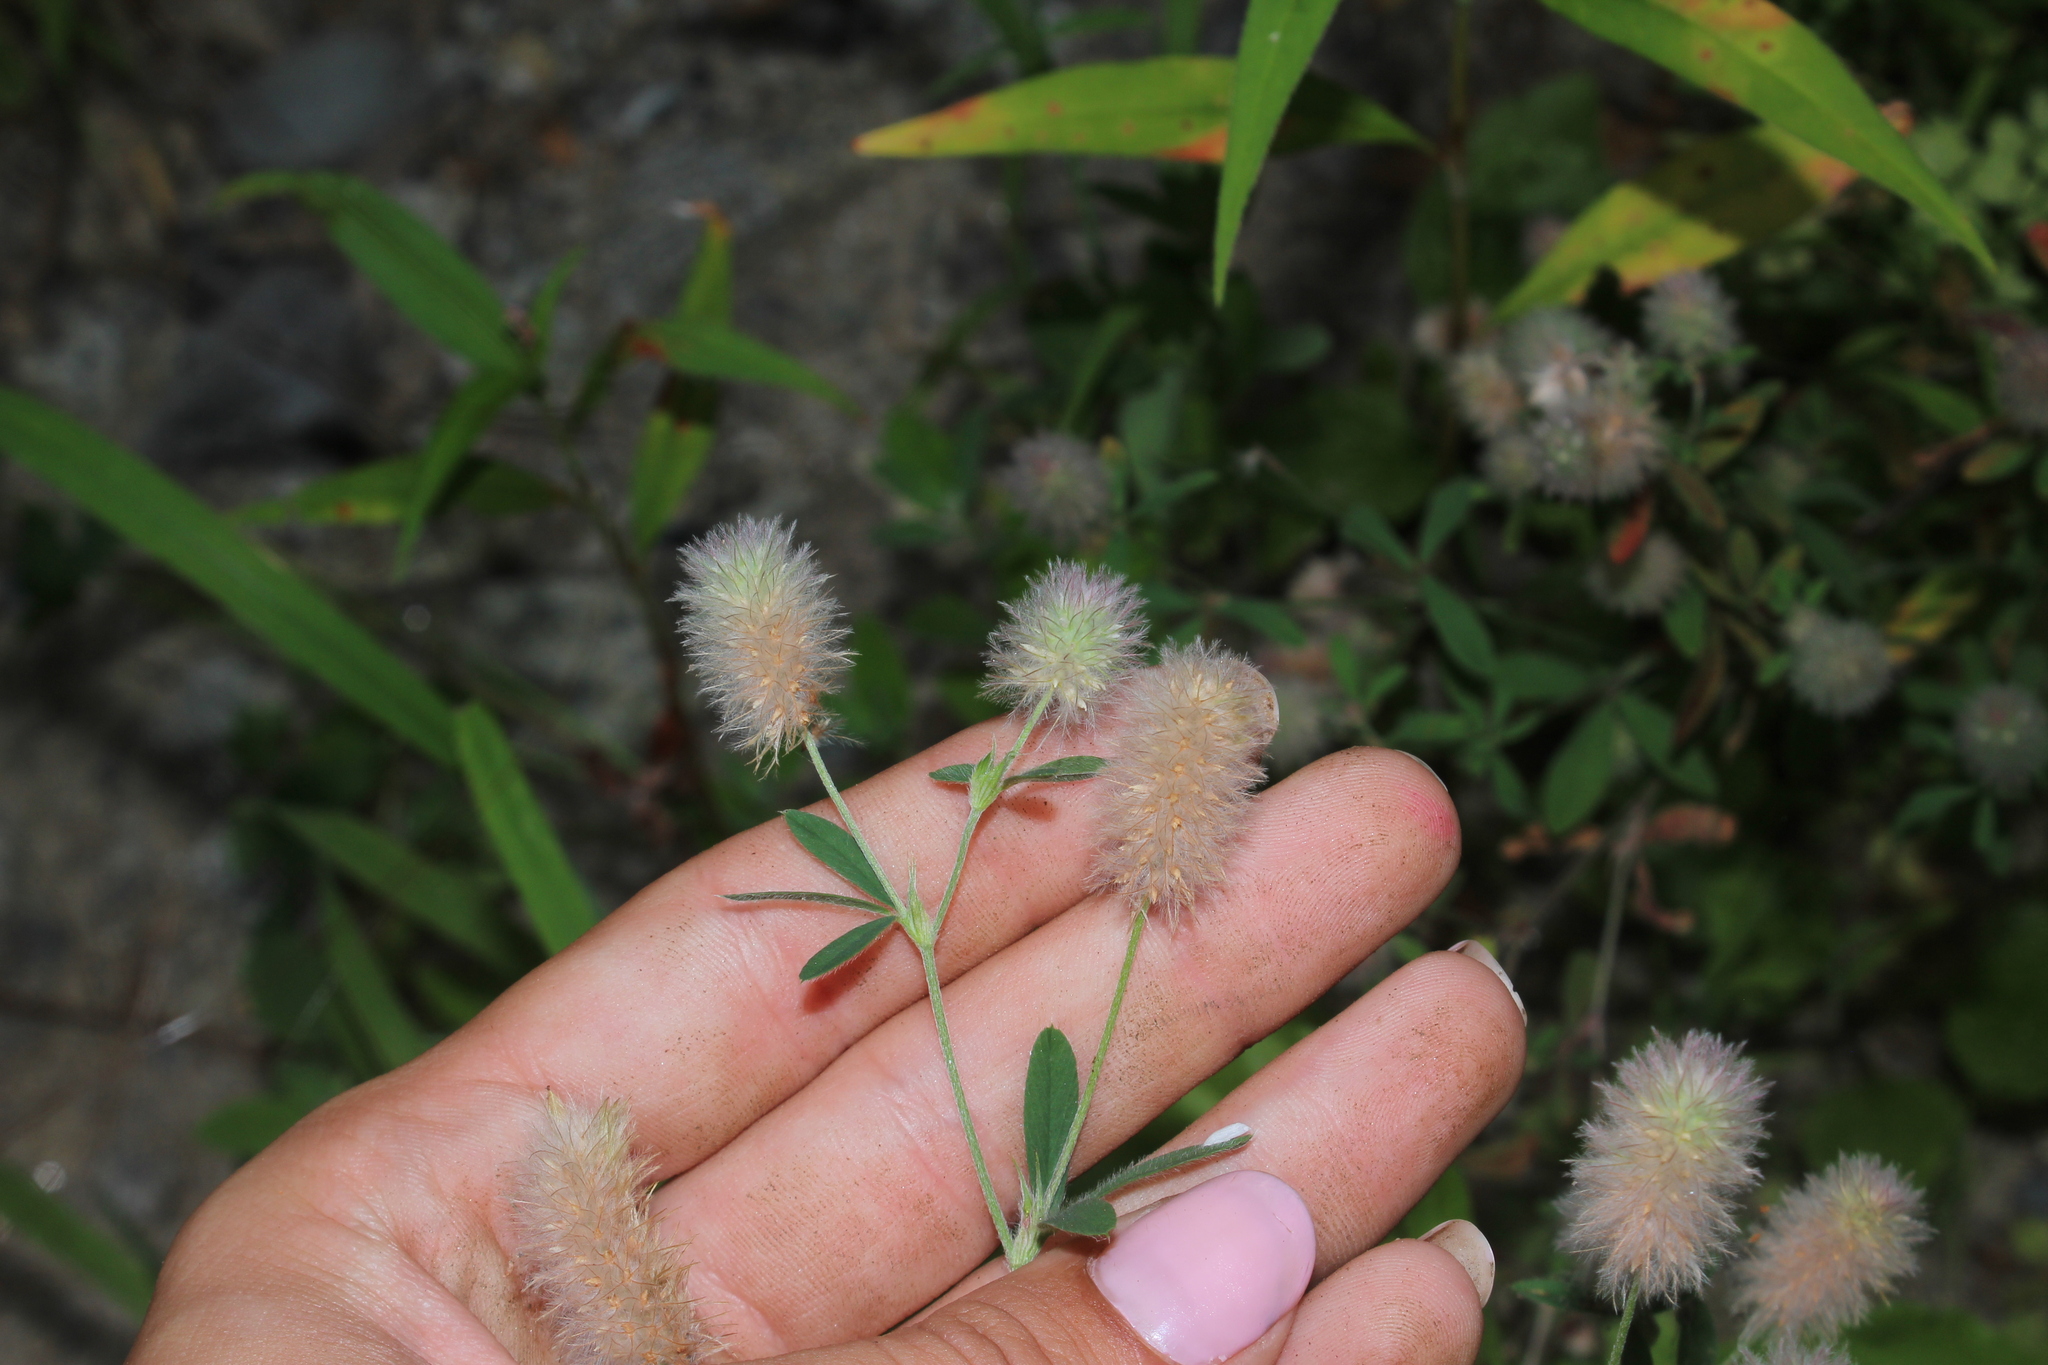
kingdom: Plantae
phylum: Tracheophyta
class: Magnoliopsida
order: Fabales
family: Fabaceae
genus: Trifolium
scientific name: Trifolium arvense
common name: Hare's-foot clover
